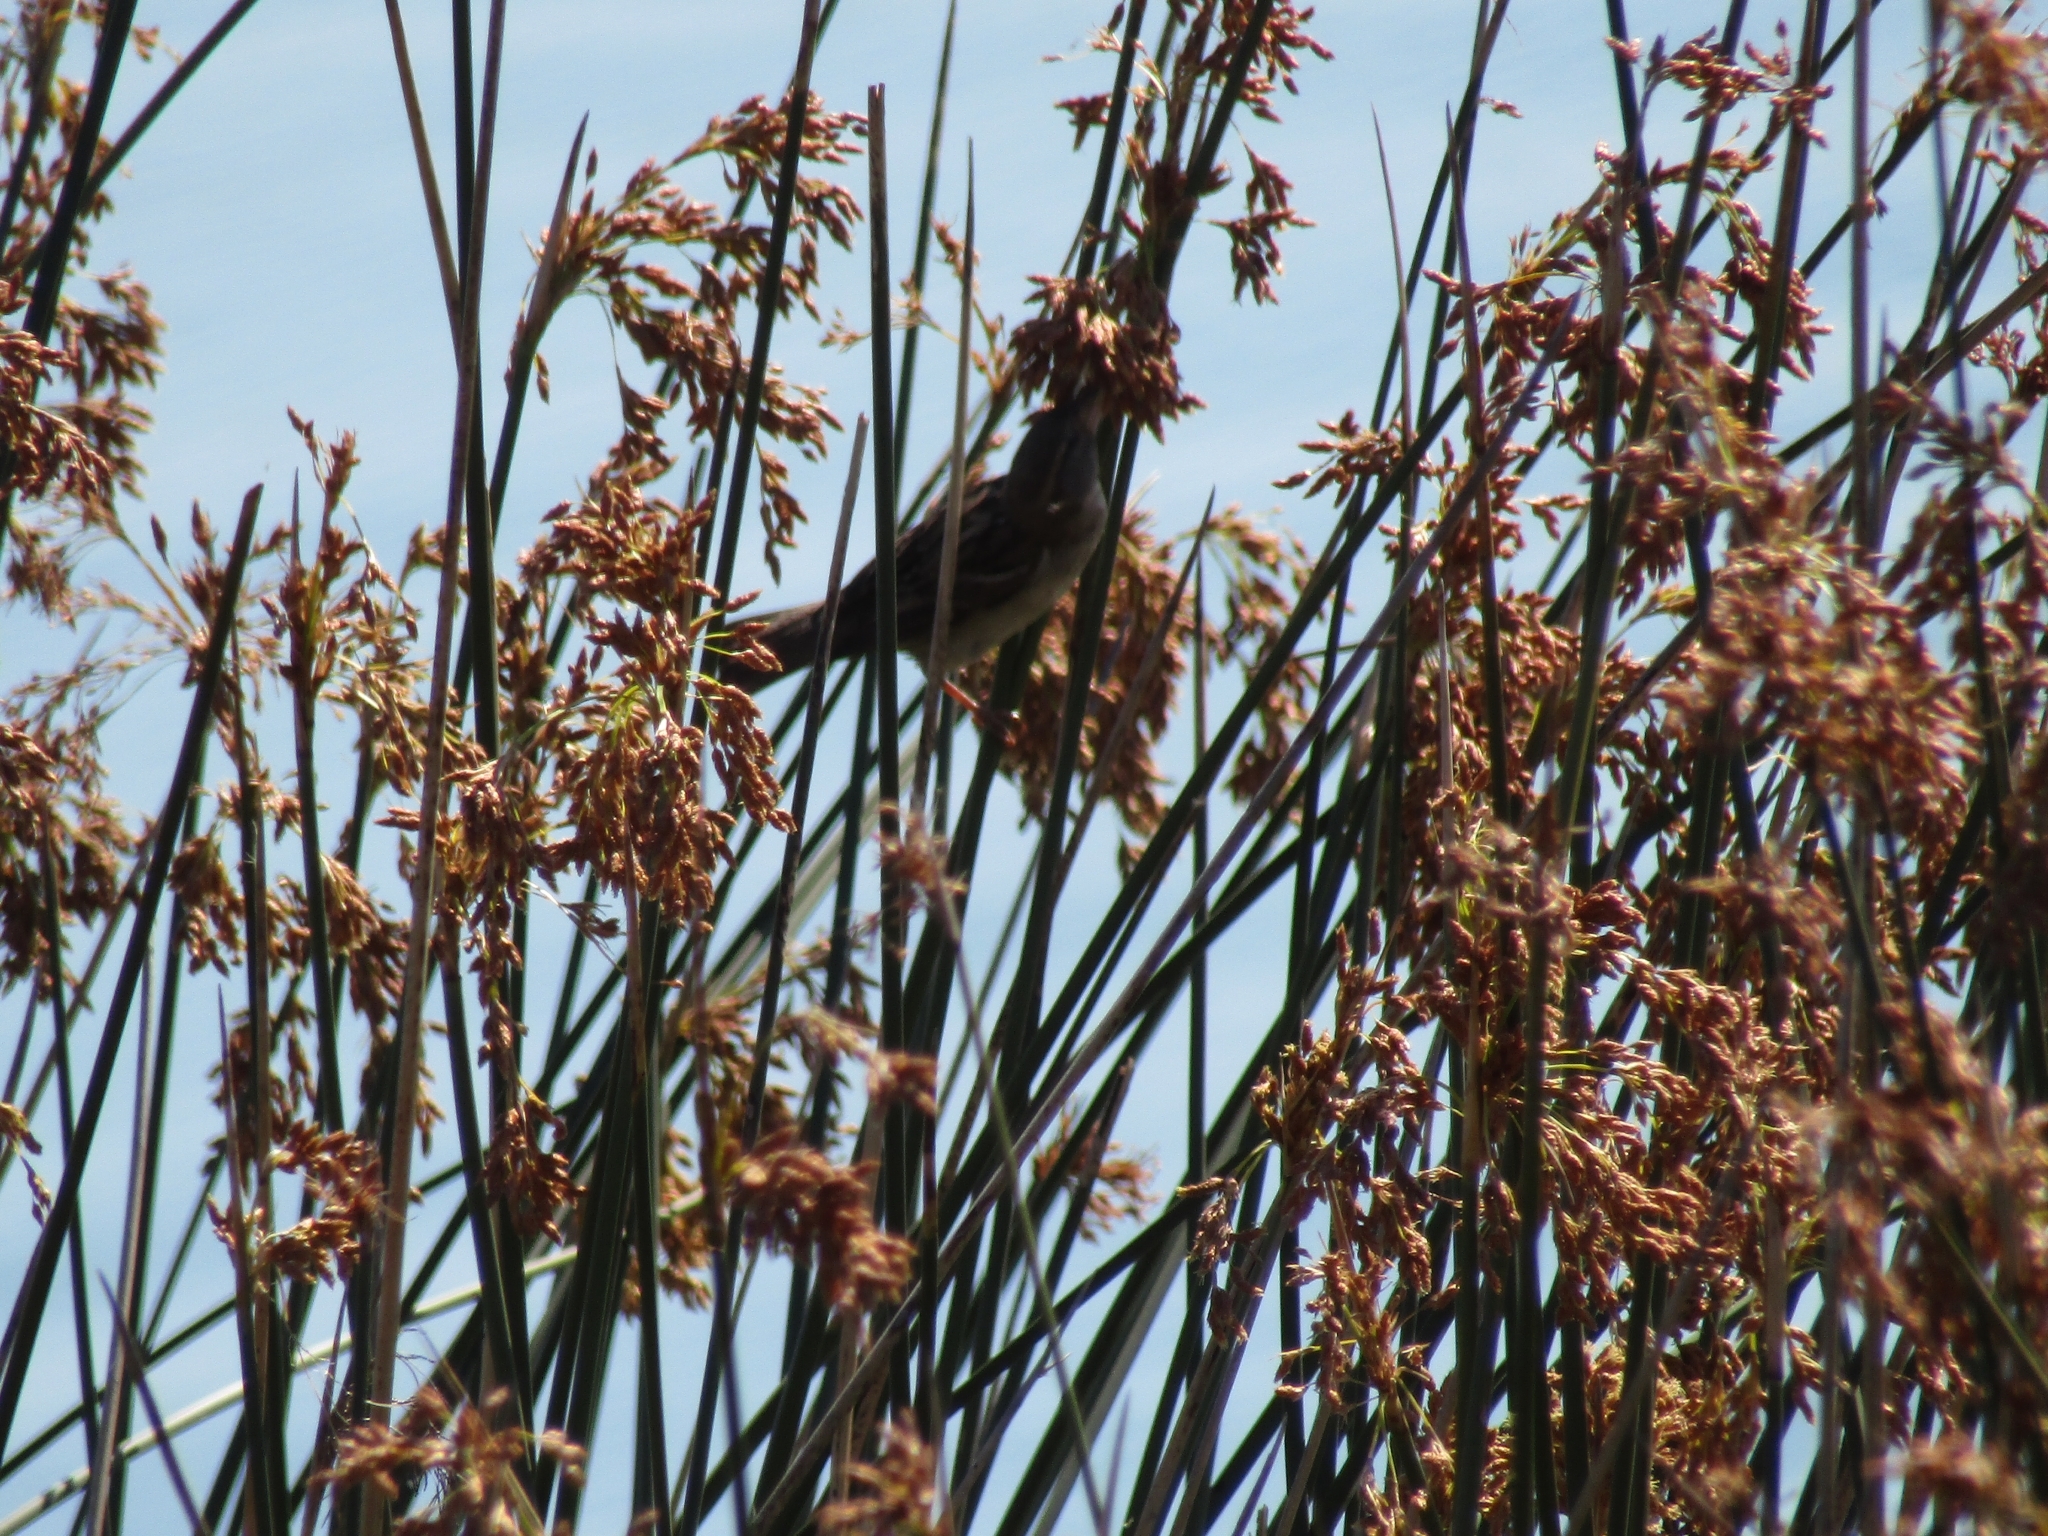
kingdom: Animalia
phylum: Chordata
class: Aves
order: Passeriformes
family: Passeridae
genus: Passer
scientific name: Passer domesticus
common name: House sparrow
